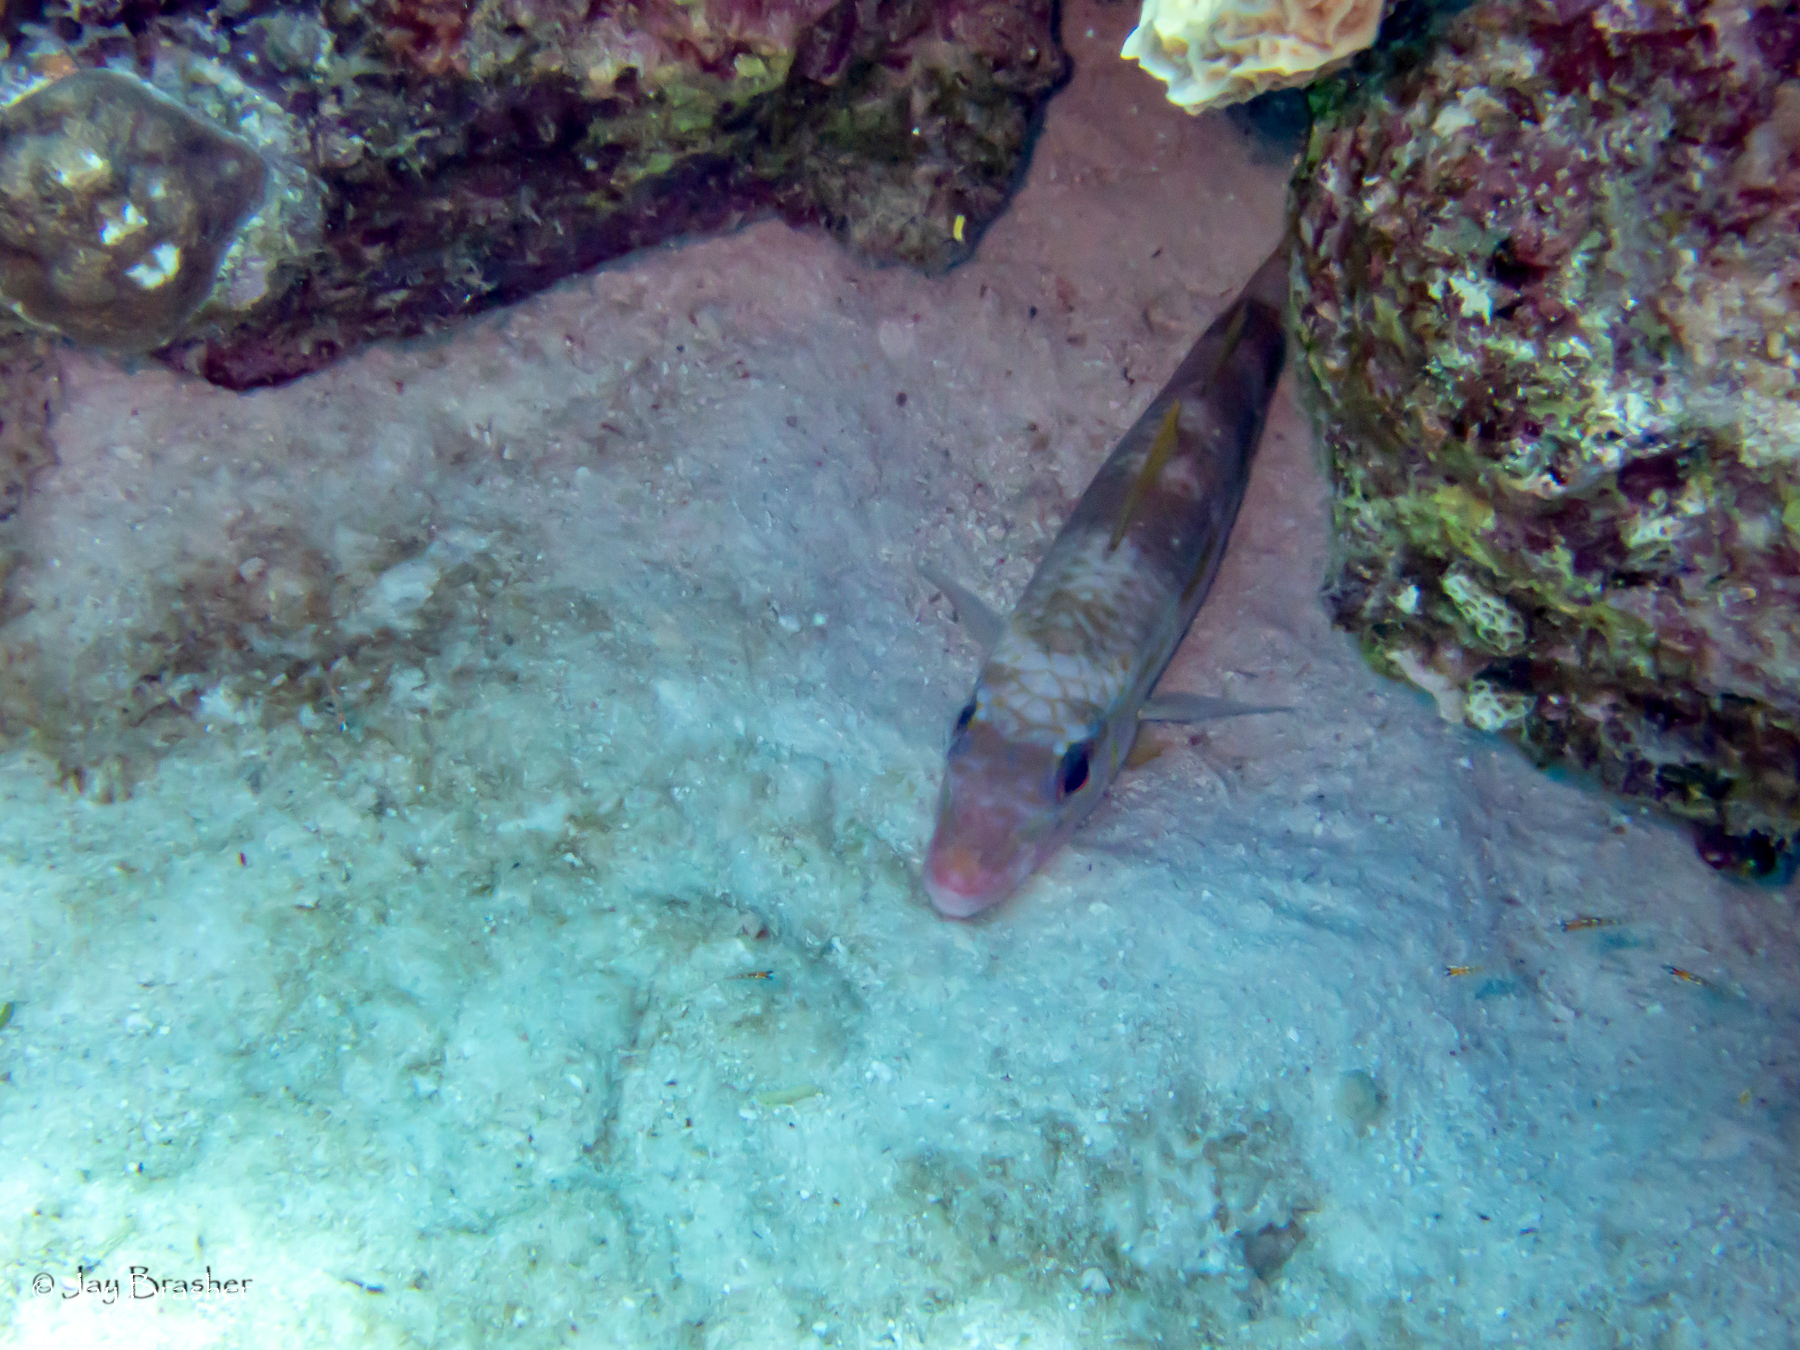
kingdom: Animalia
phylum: Chordata
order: Perciformes
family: Mullidae
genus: Pseudupeneus
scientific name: Pseudupeneus maculatus
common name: Spotted goatfish
